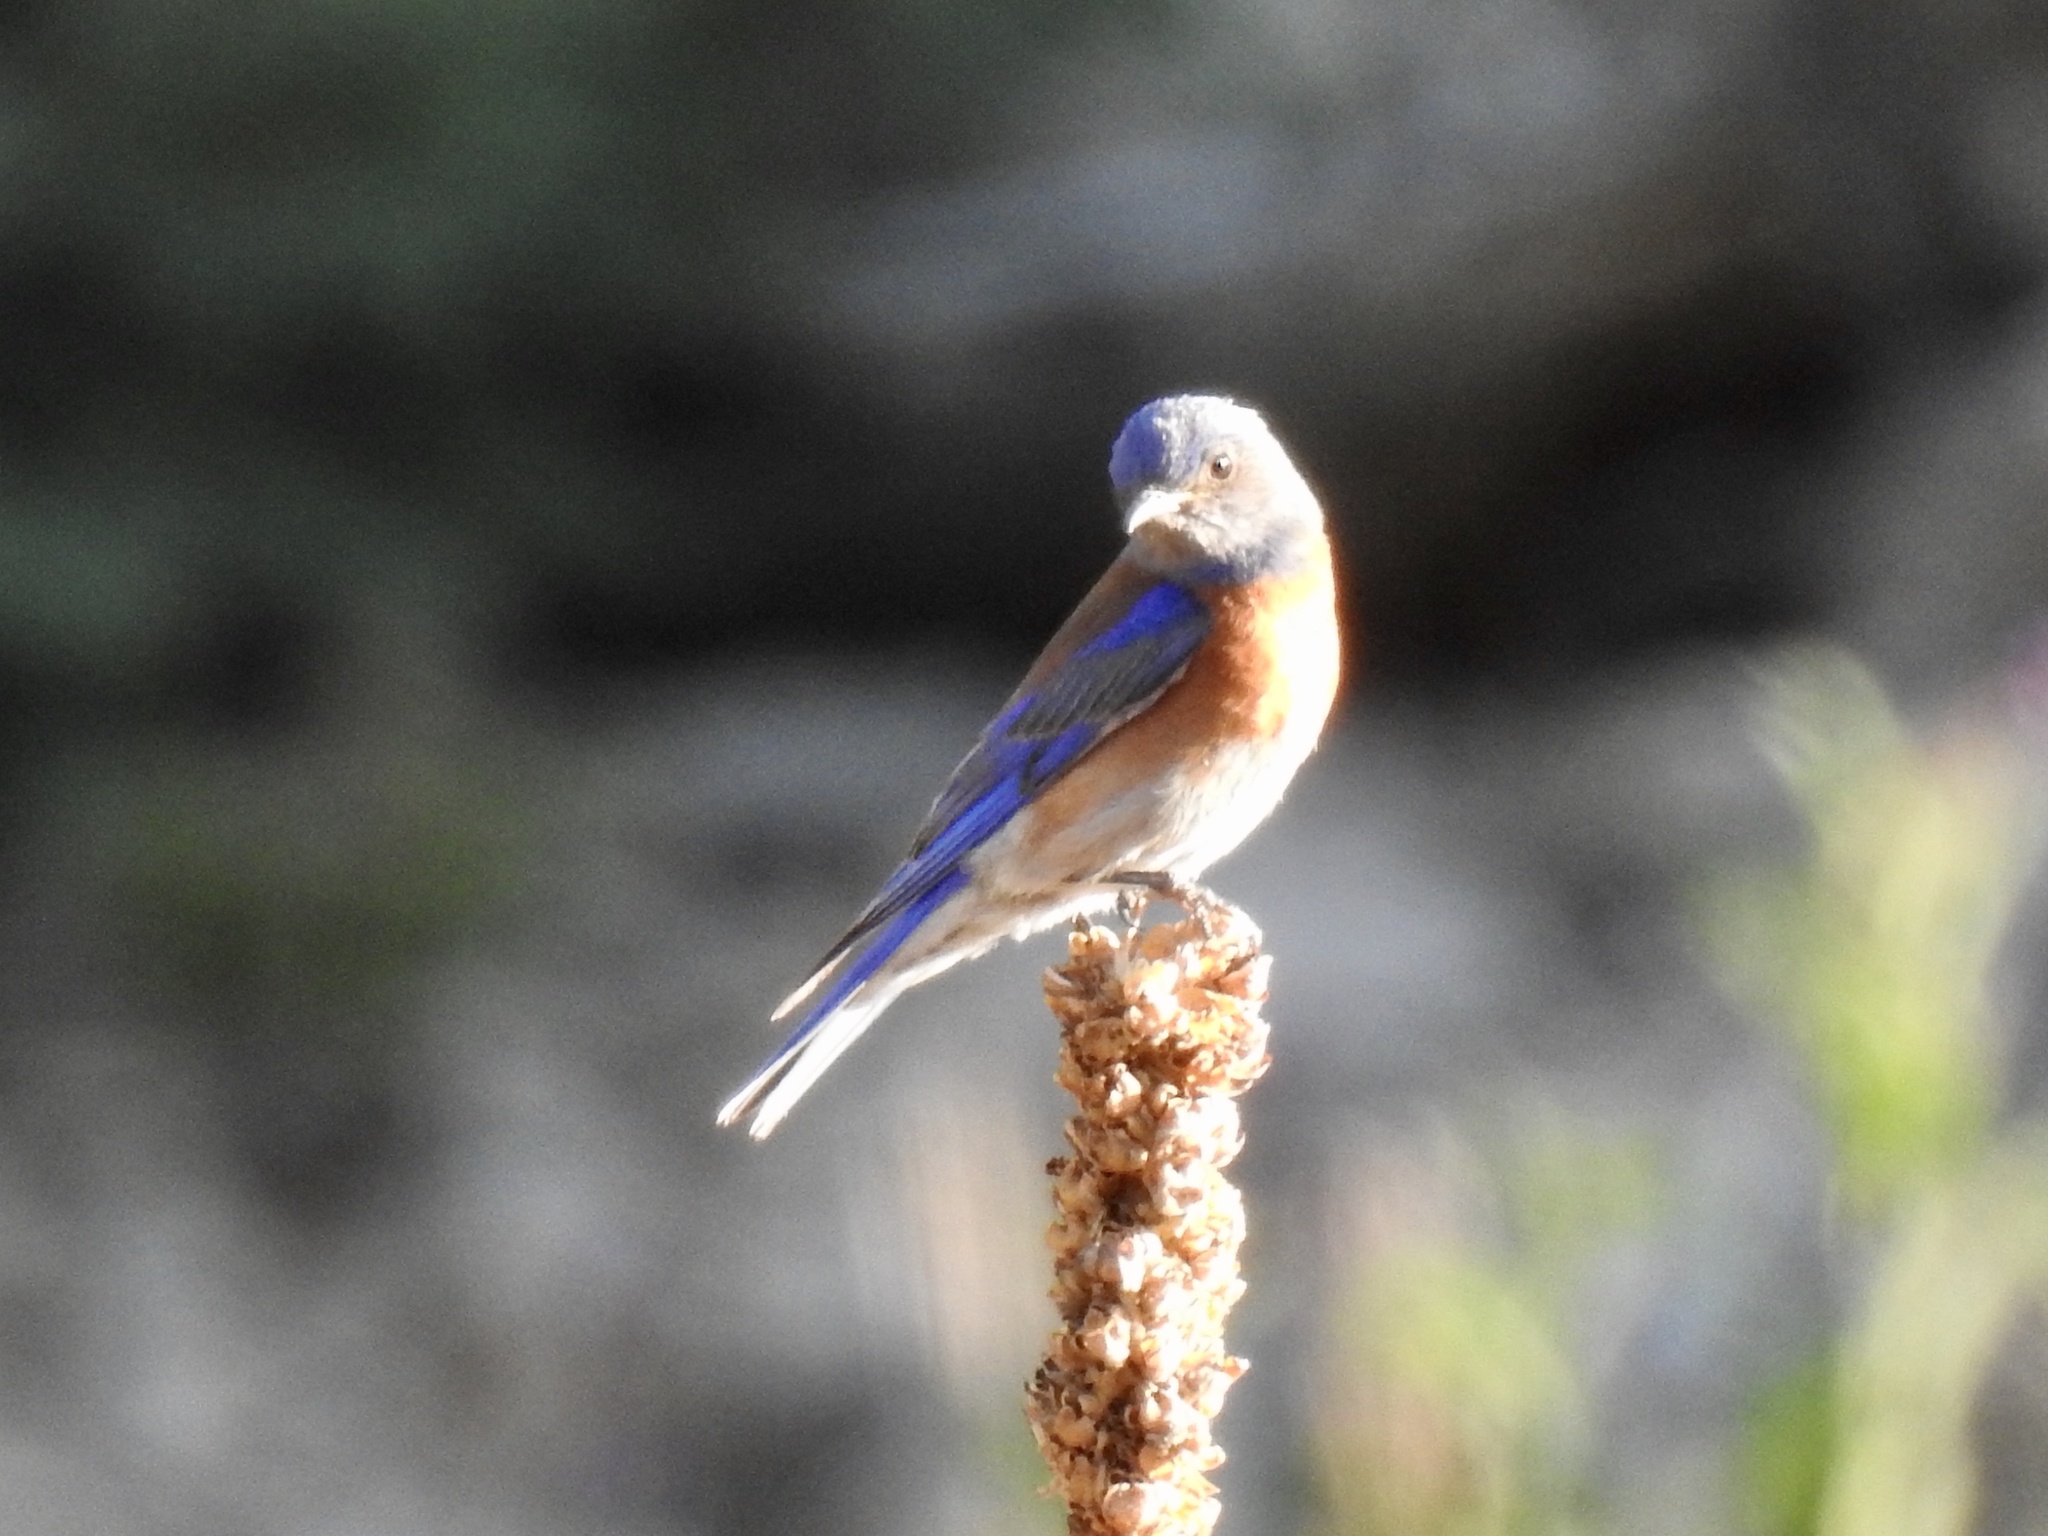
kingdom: Animalia
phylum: Chordata
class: Aves
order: Passeriformes
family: Turdidae
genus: Sialia
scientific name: Sialia mexicana
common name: Western bluebird
